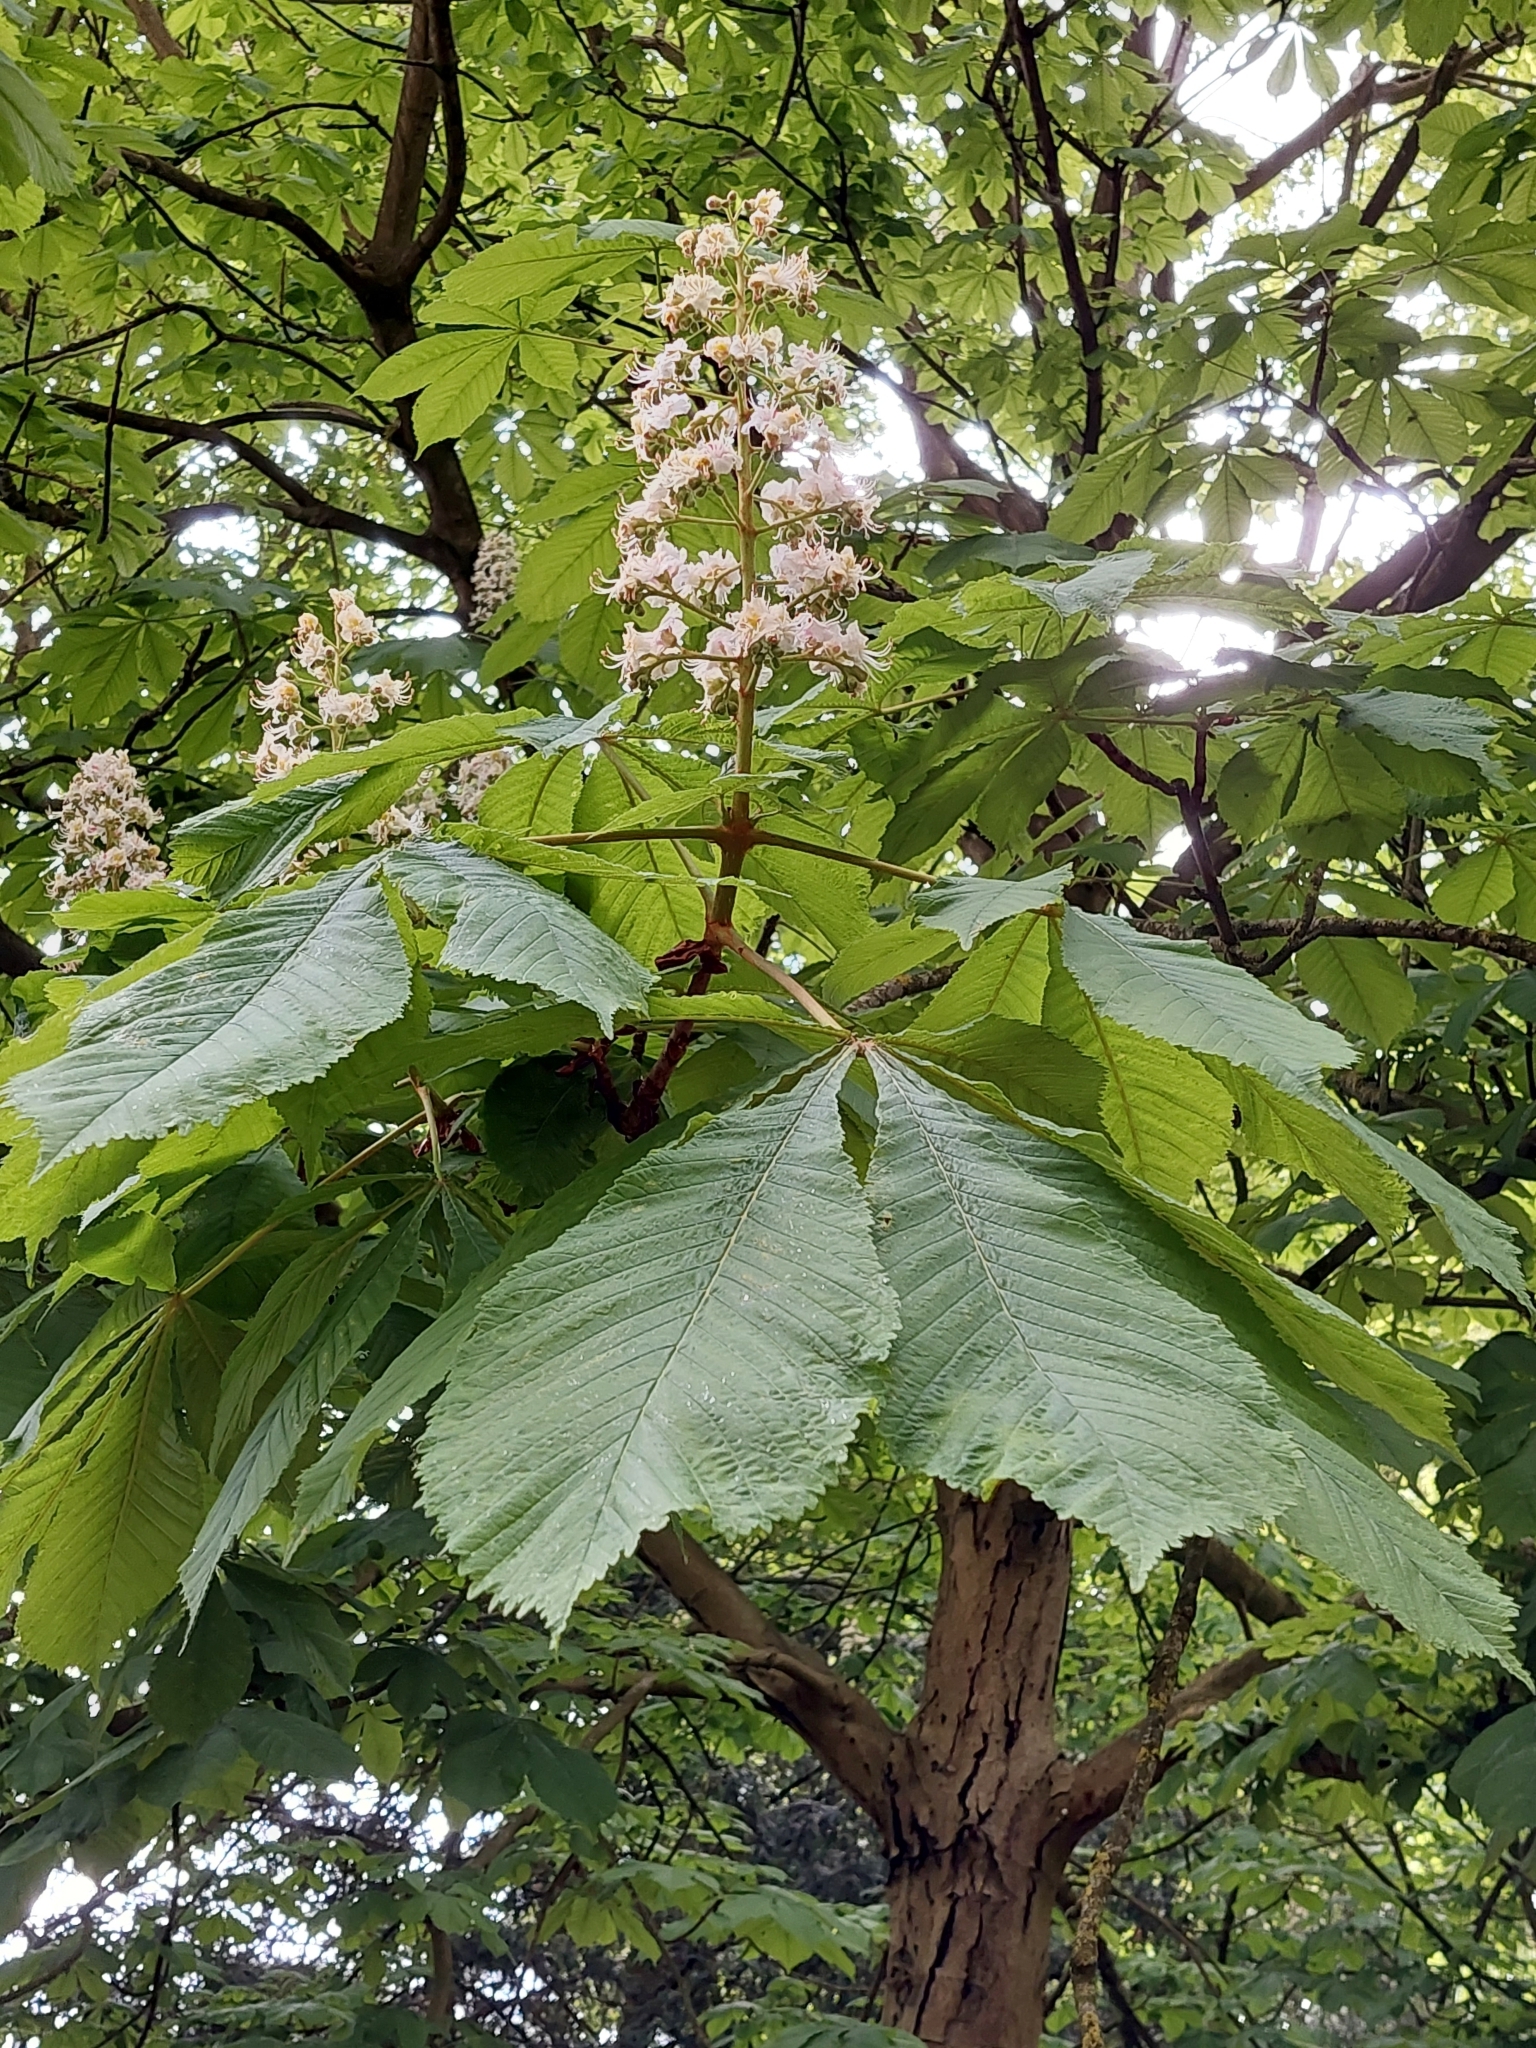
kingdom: Plantae
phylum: Tracheophyta
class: Magnoliopsida
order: Sapindales
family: Sapindaceae
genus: Aesculus
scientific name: Aesculus hippocastanum
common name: Horse-chestnut
